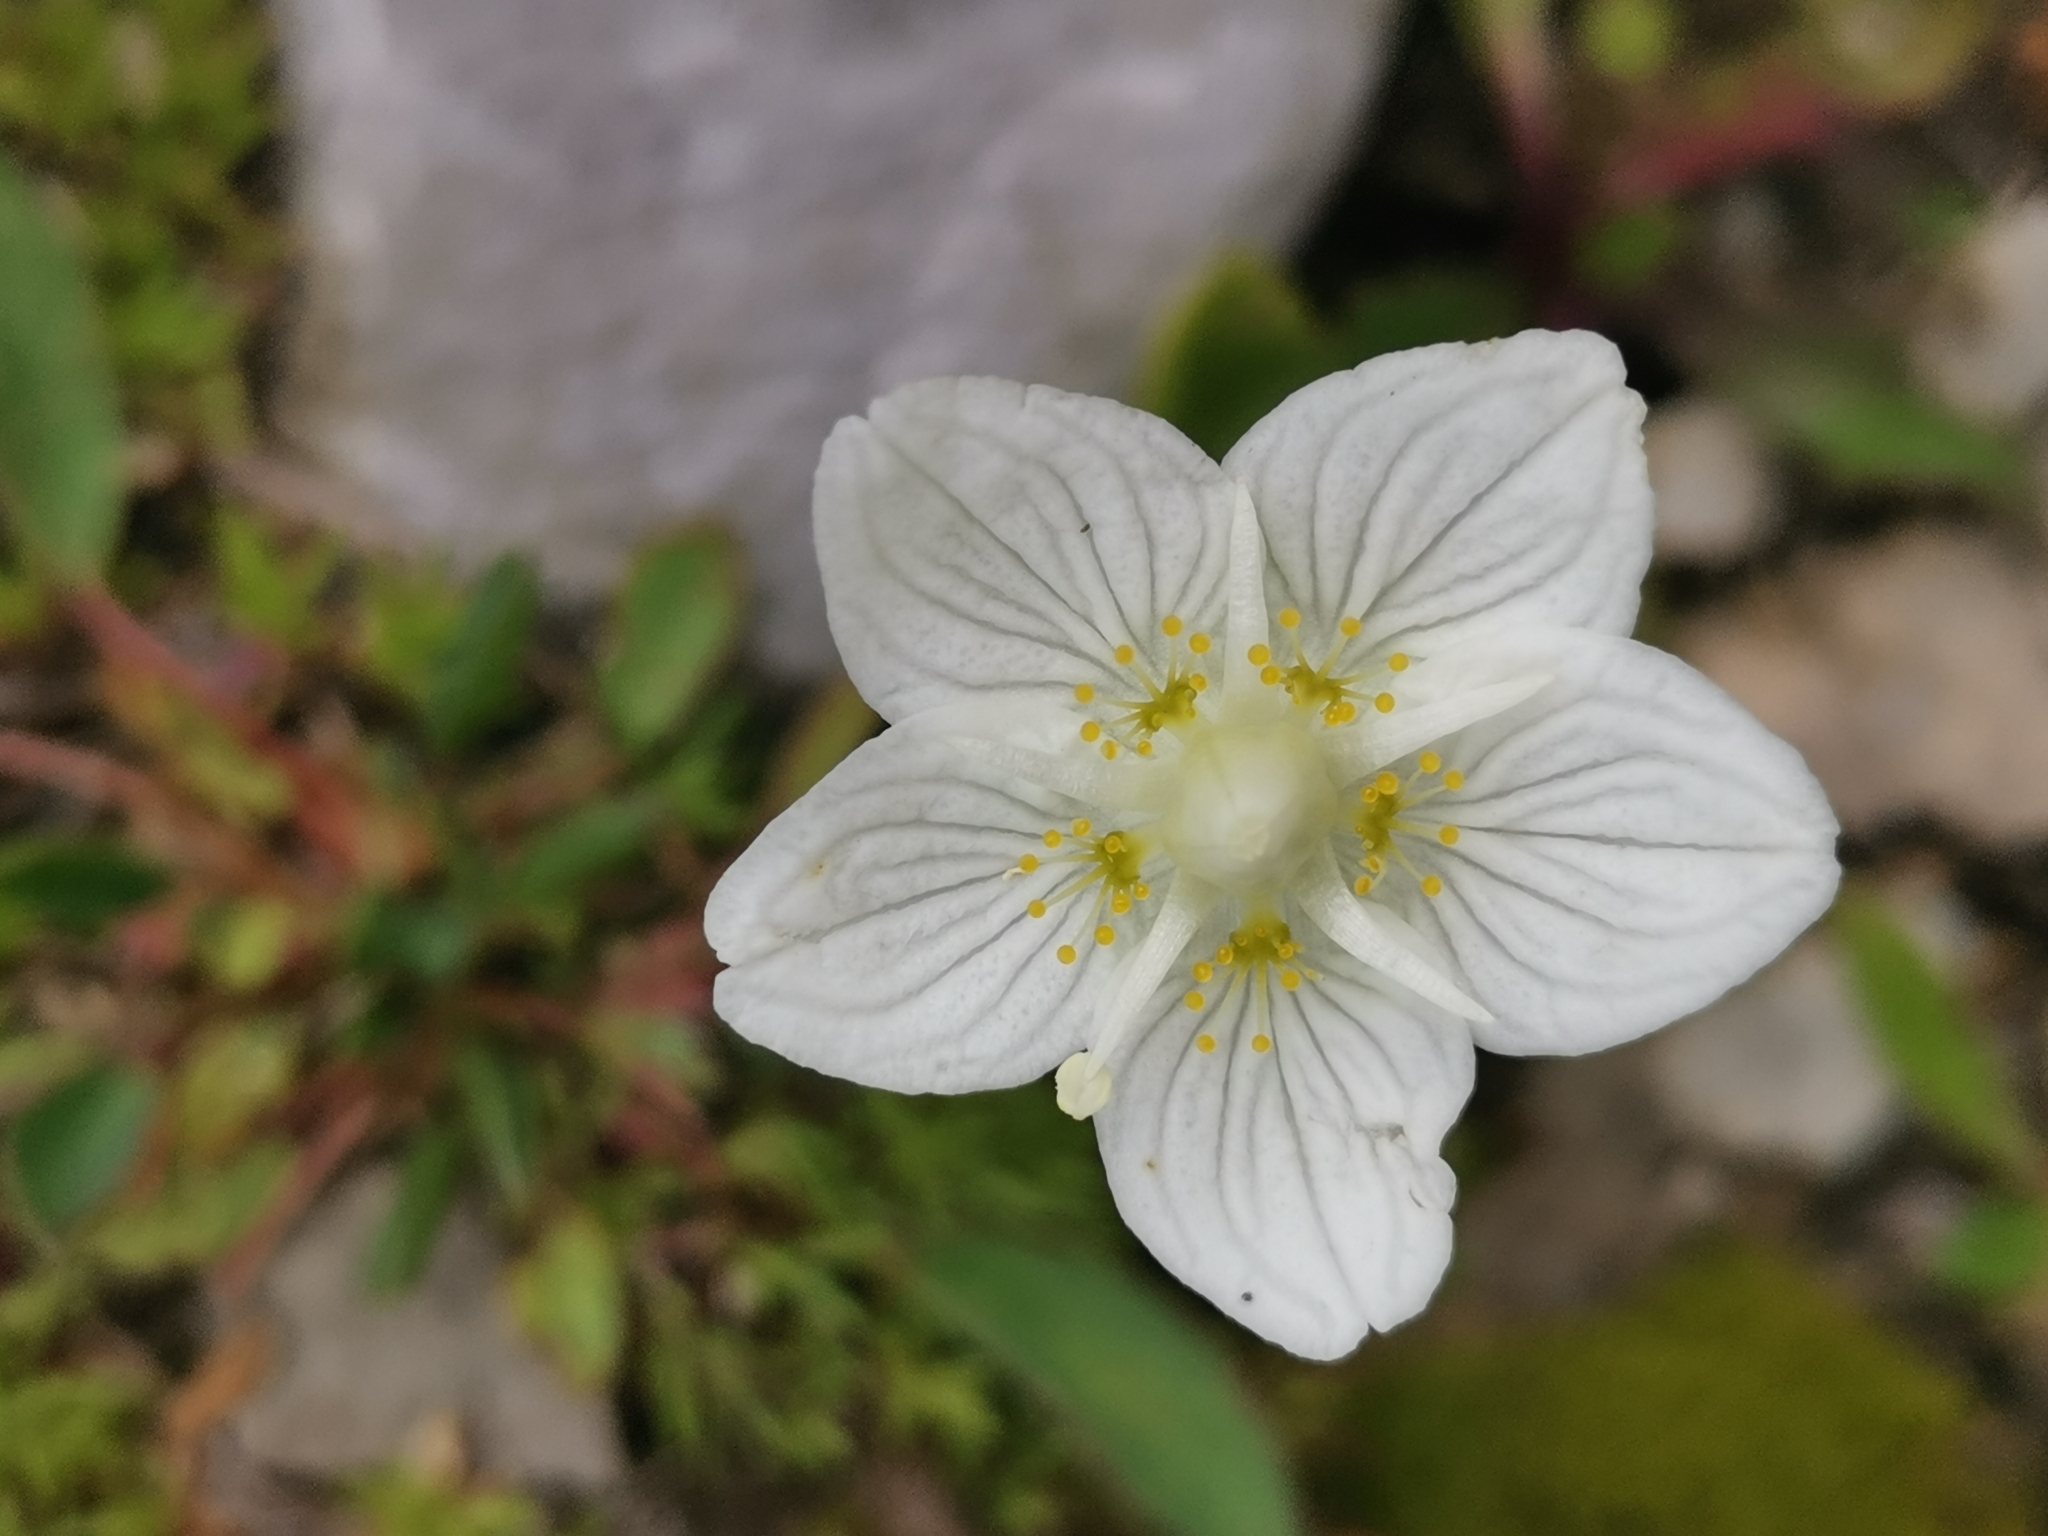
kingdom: Plantae
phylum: Tracheophyta
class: Magnoliopsida
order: Celastrales
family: Parnassiaceae
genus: Parnassia
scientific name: Parnassia palustris
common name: Grass-of-parnassus
